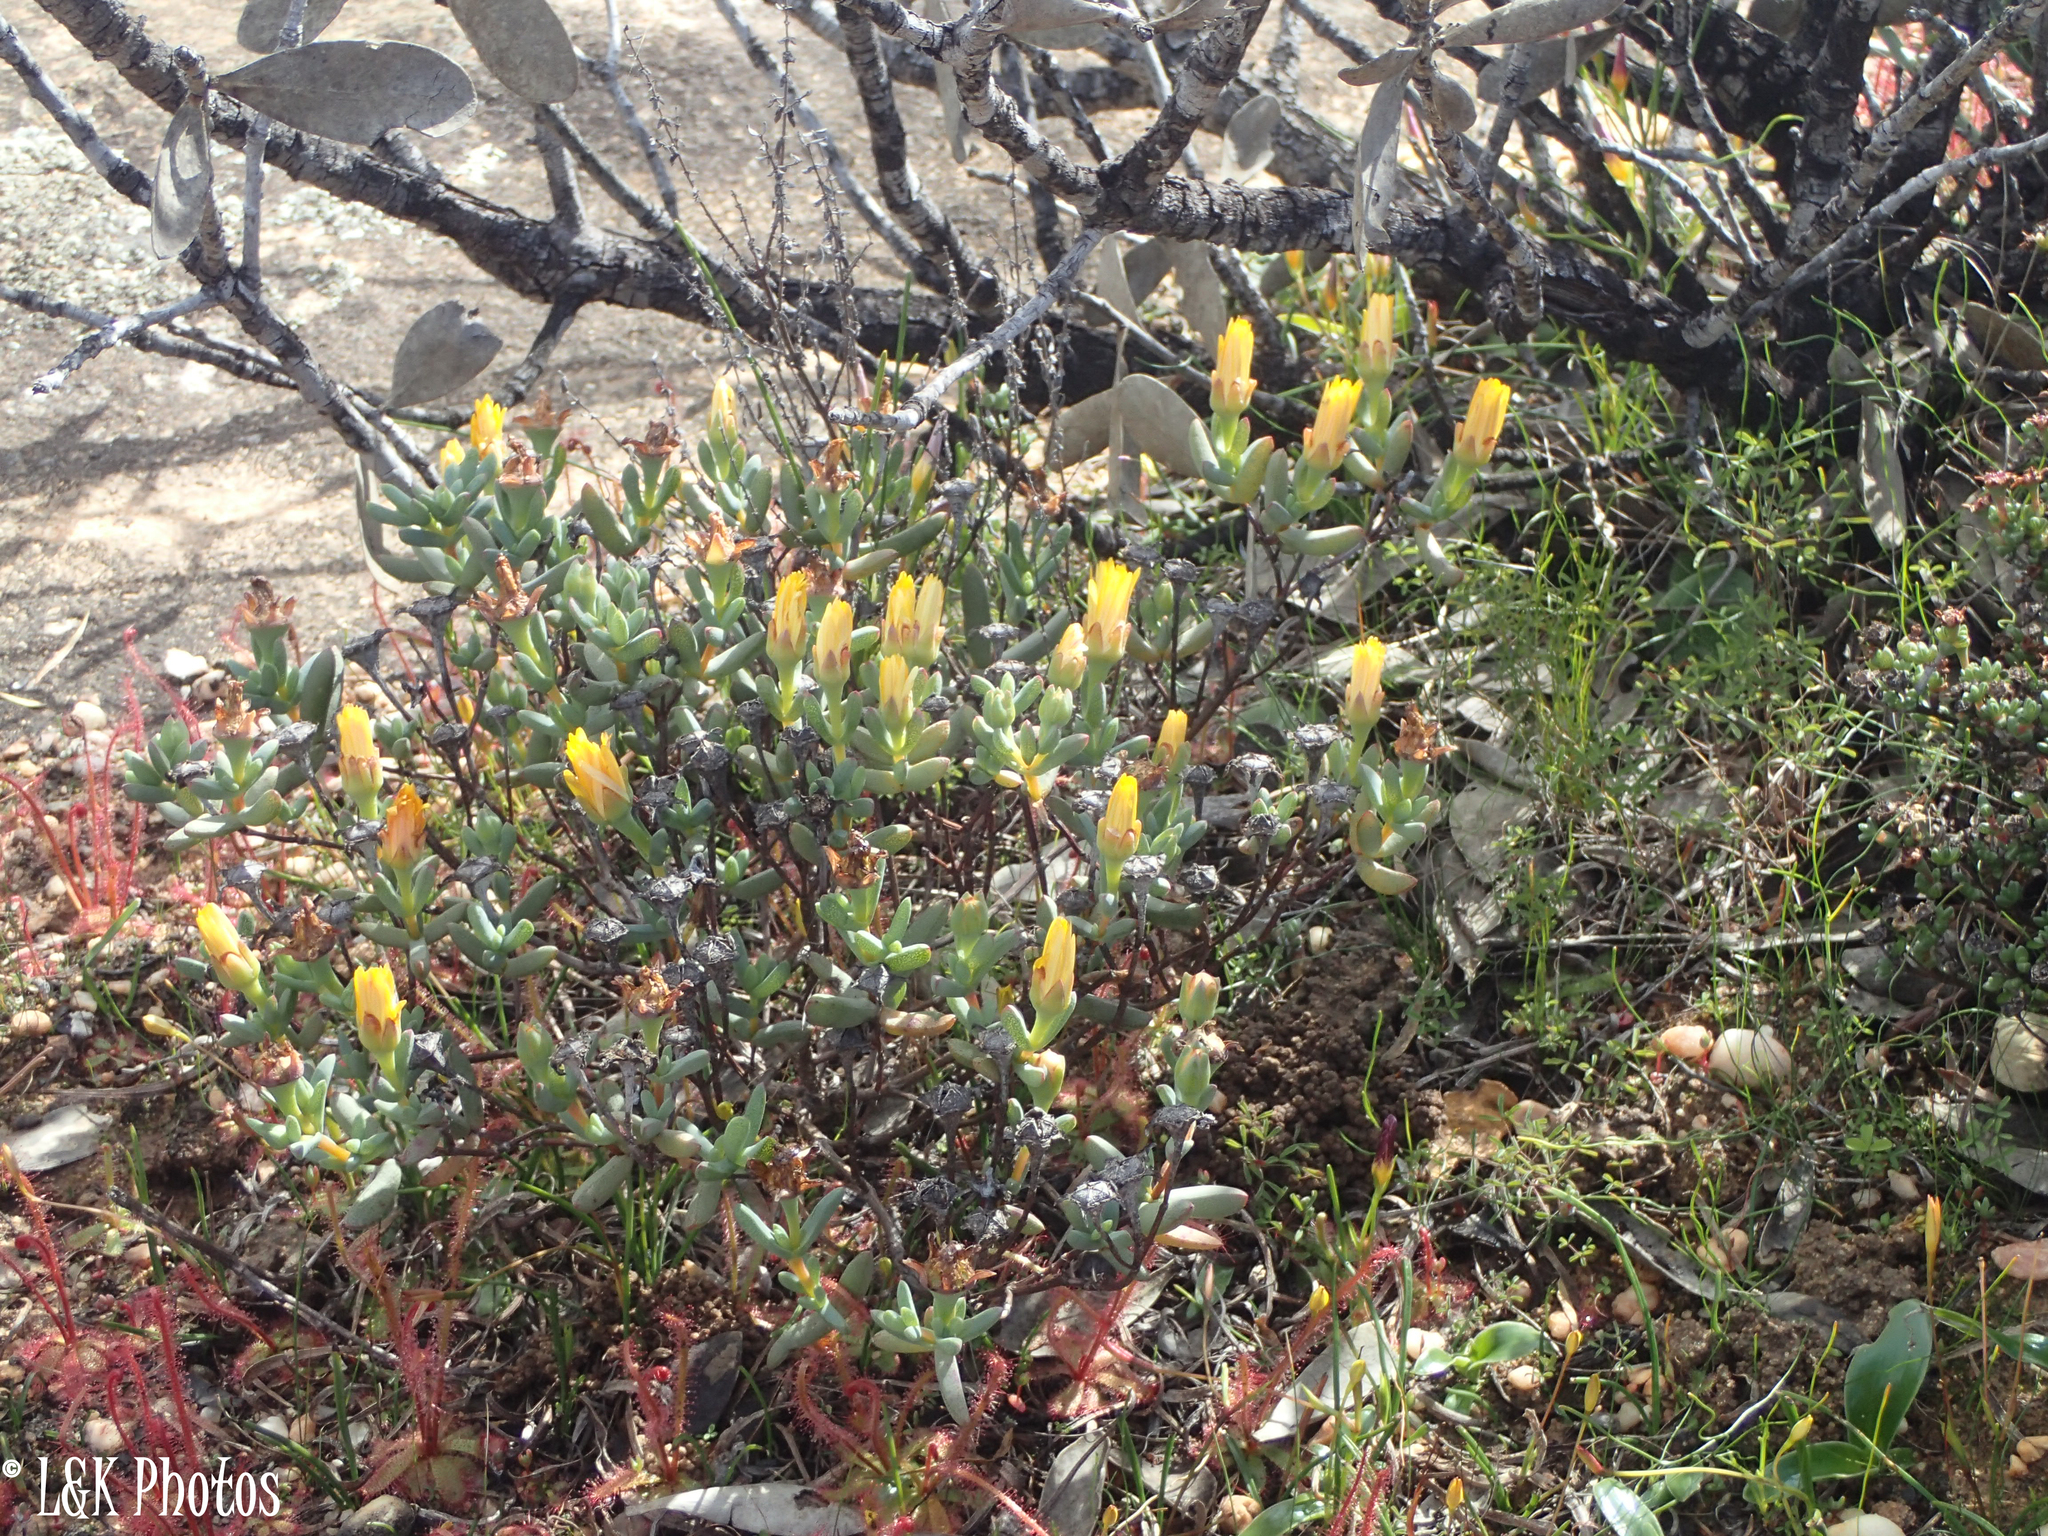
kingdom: Plantae
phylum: Tracheophyta
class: Magnoliopsida
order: Caryophyllales
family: Aizoaceae
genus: Lampranthus
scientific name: Lampranthus glaucus
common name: Noonflower
